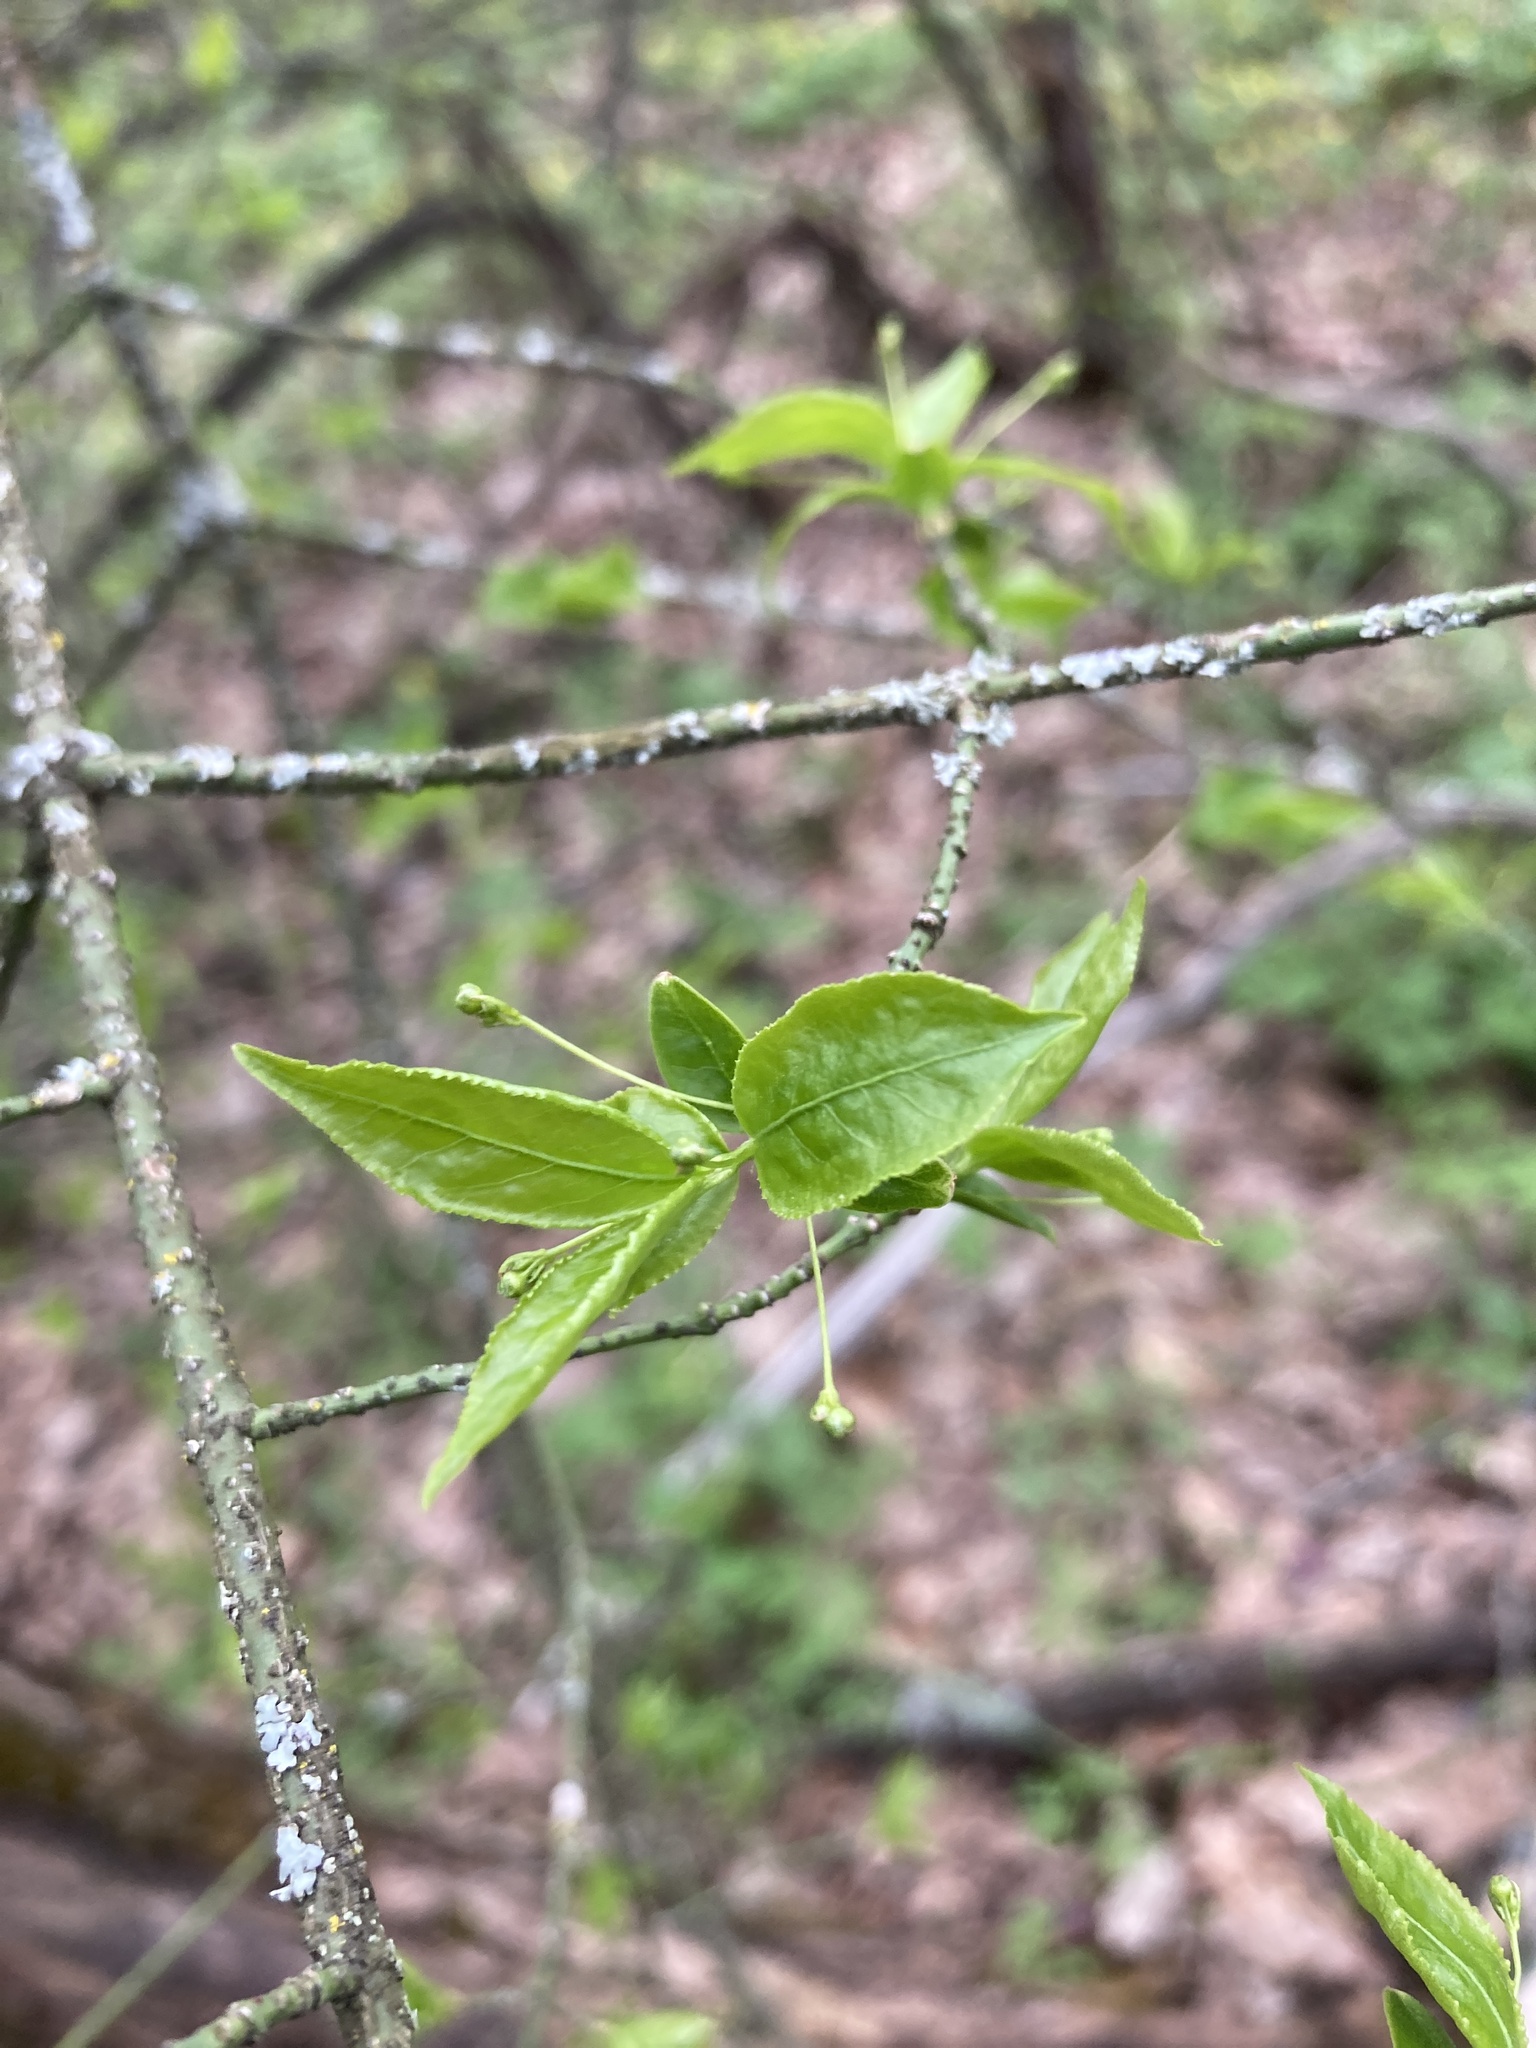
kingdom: Plantae
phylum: Tracheophyta
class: Magnoliopsida
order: Celastrales
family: Celastraceae
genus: Euonymus
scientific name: Euonymus verrucosus
